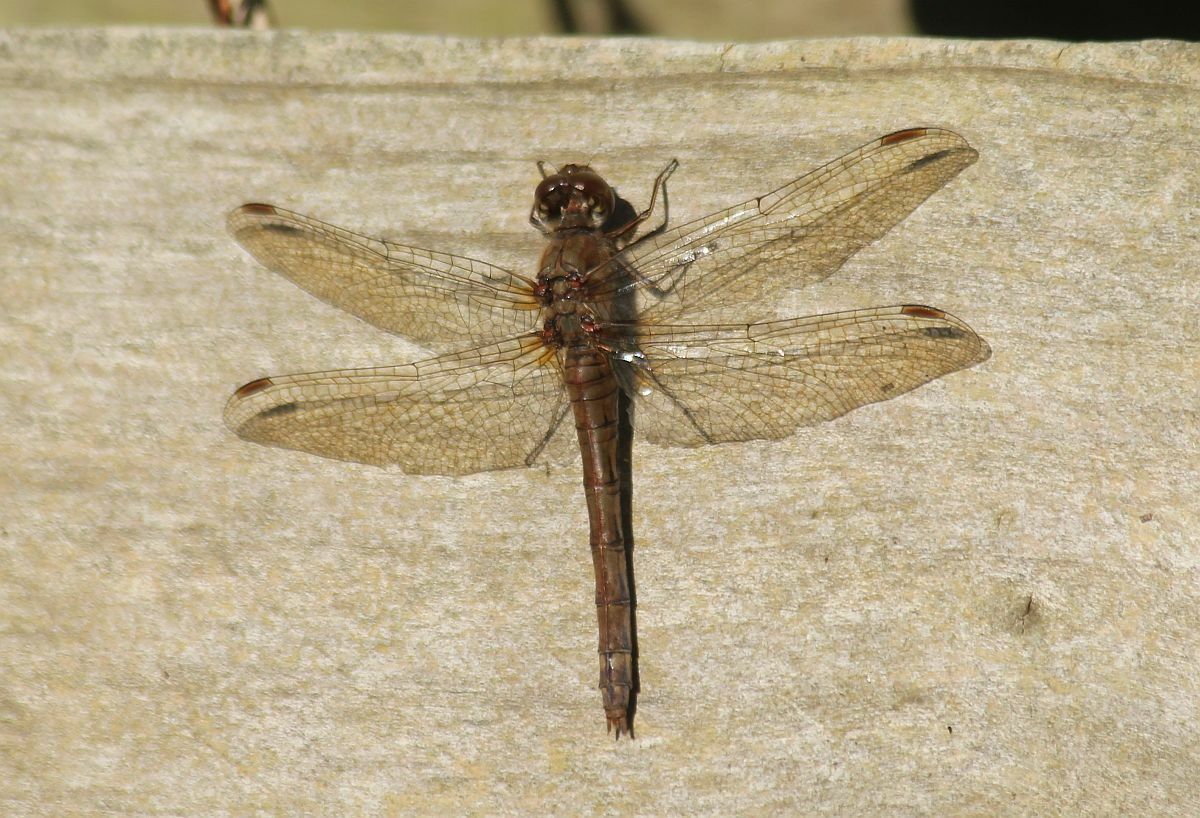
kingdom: Animalia
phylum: Arthropoda
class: Insecta
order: Odonata
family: Libellulidae
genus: Sympetrum
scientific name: Sympetrum striolatum
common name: Common darter
